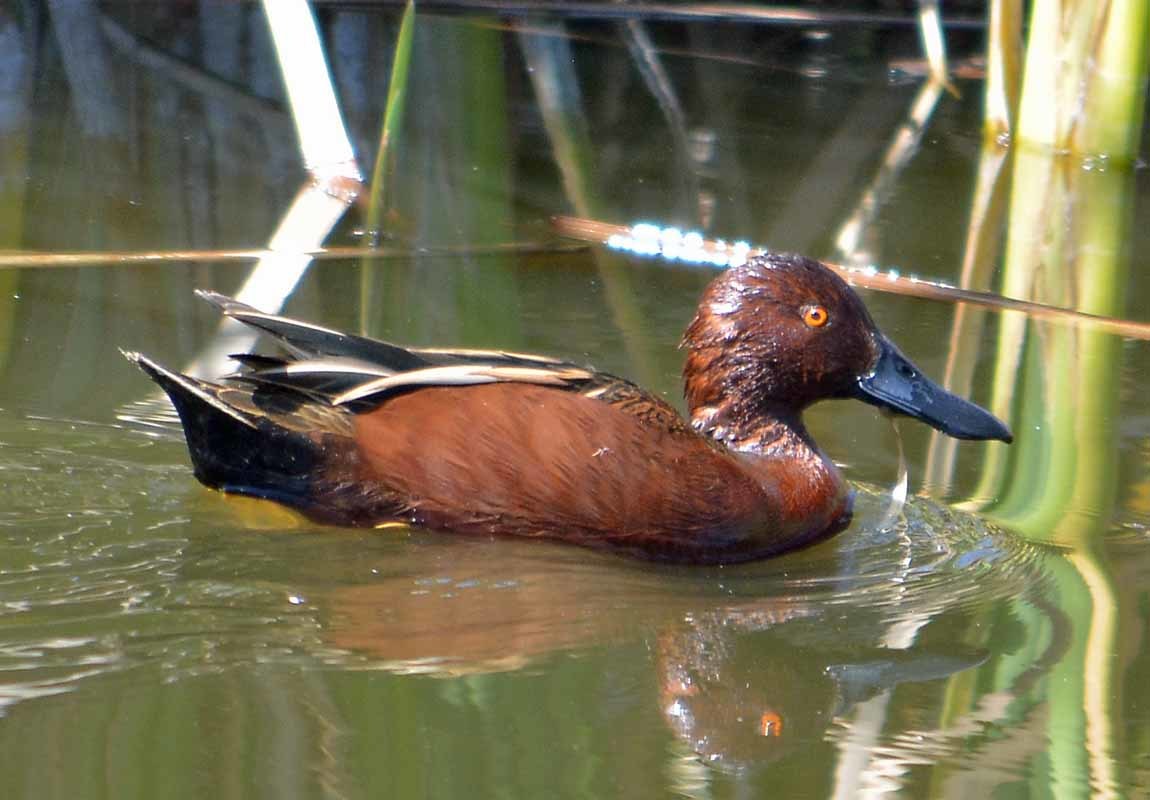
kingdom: Animalia
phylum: Chordata
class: Aves
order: Anseriformes
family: Anatidae
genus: Spatula
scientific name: Spatula cyanoptera
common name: Cinnamon teal
